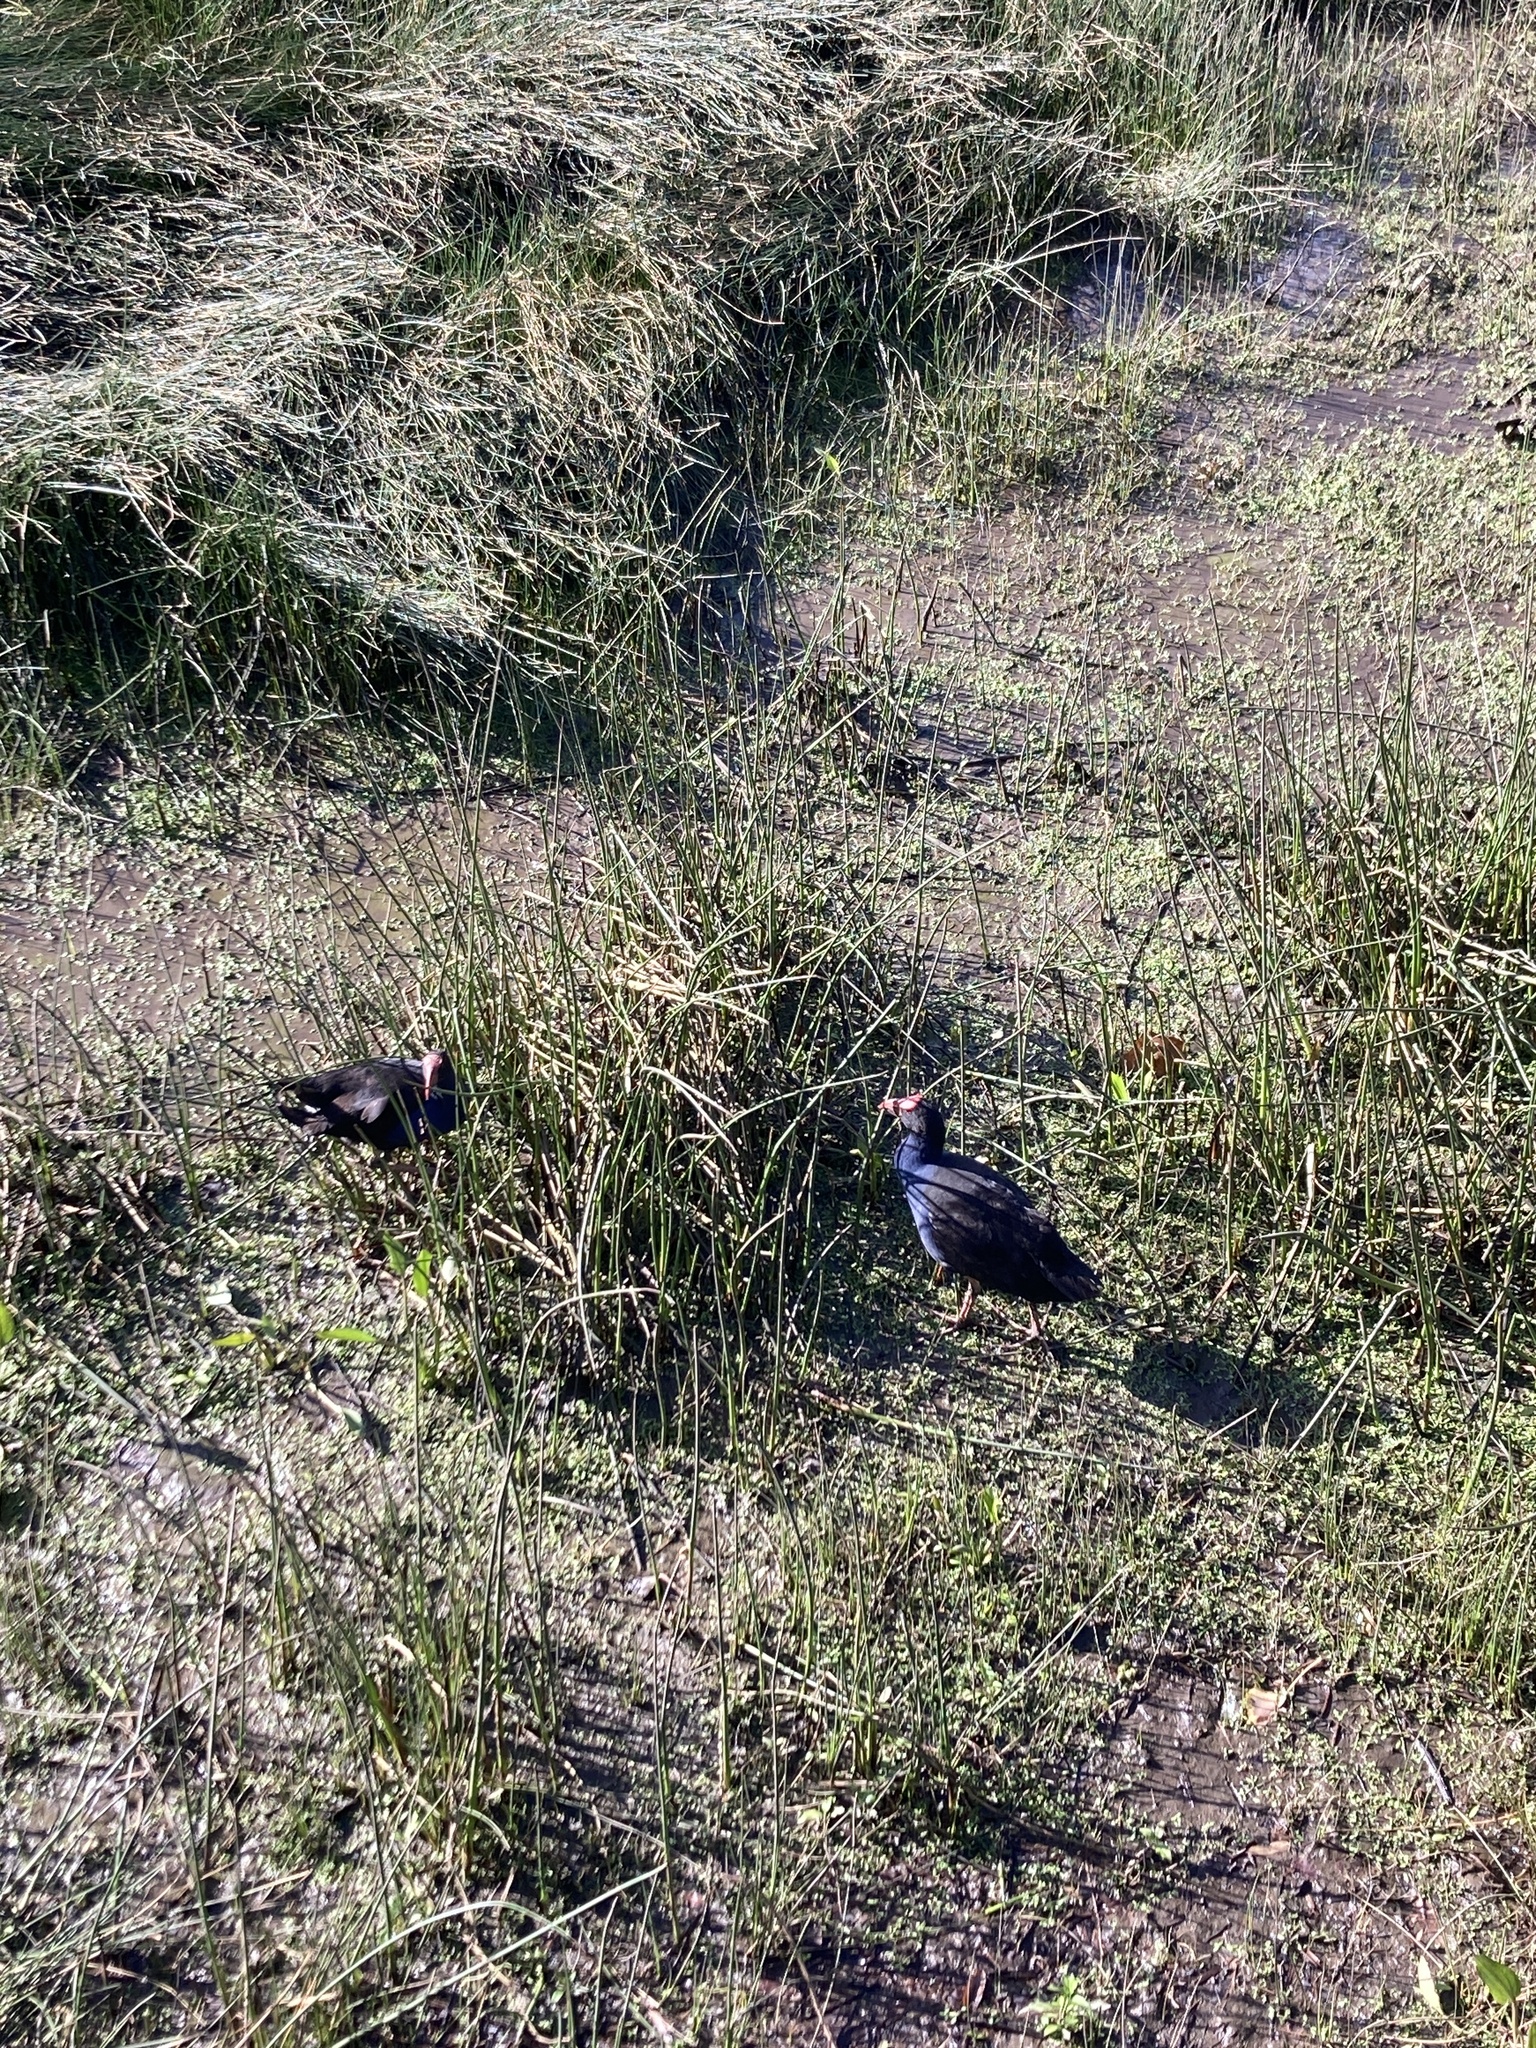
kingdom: Animalia
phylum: Chordata
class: Aves
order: Gruiformes
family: Rallidae
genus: Porphyrio
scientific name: Porphyrio melanotus
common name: Australasian swamphen
